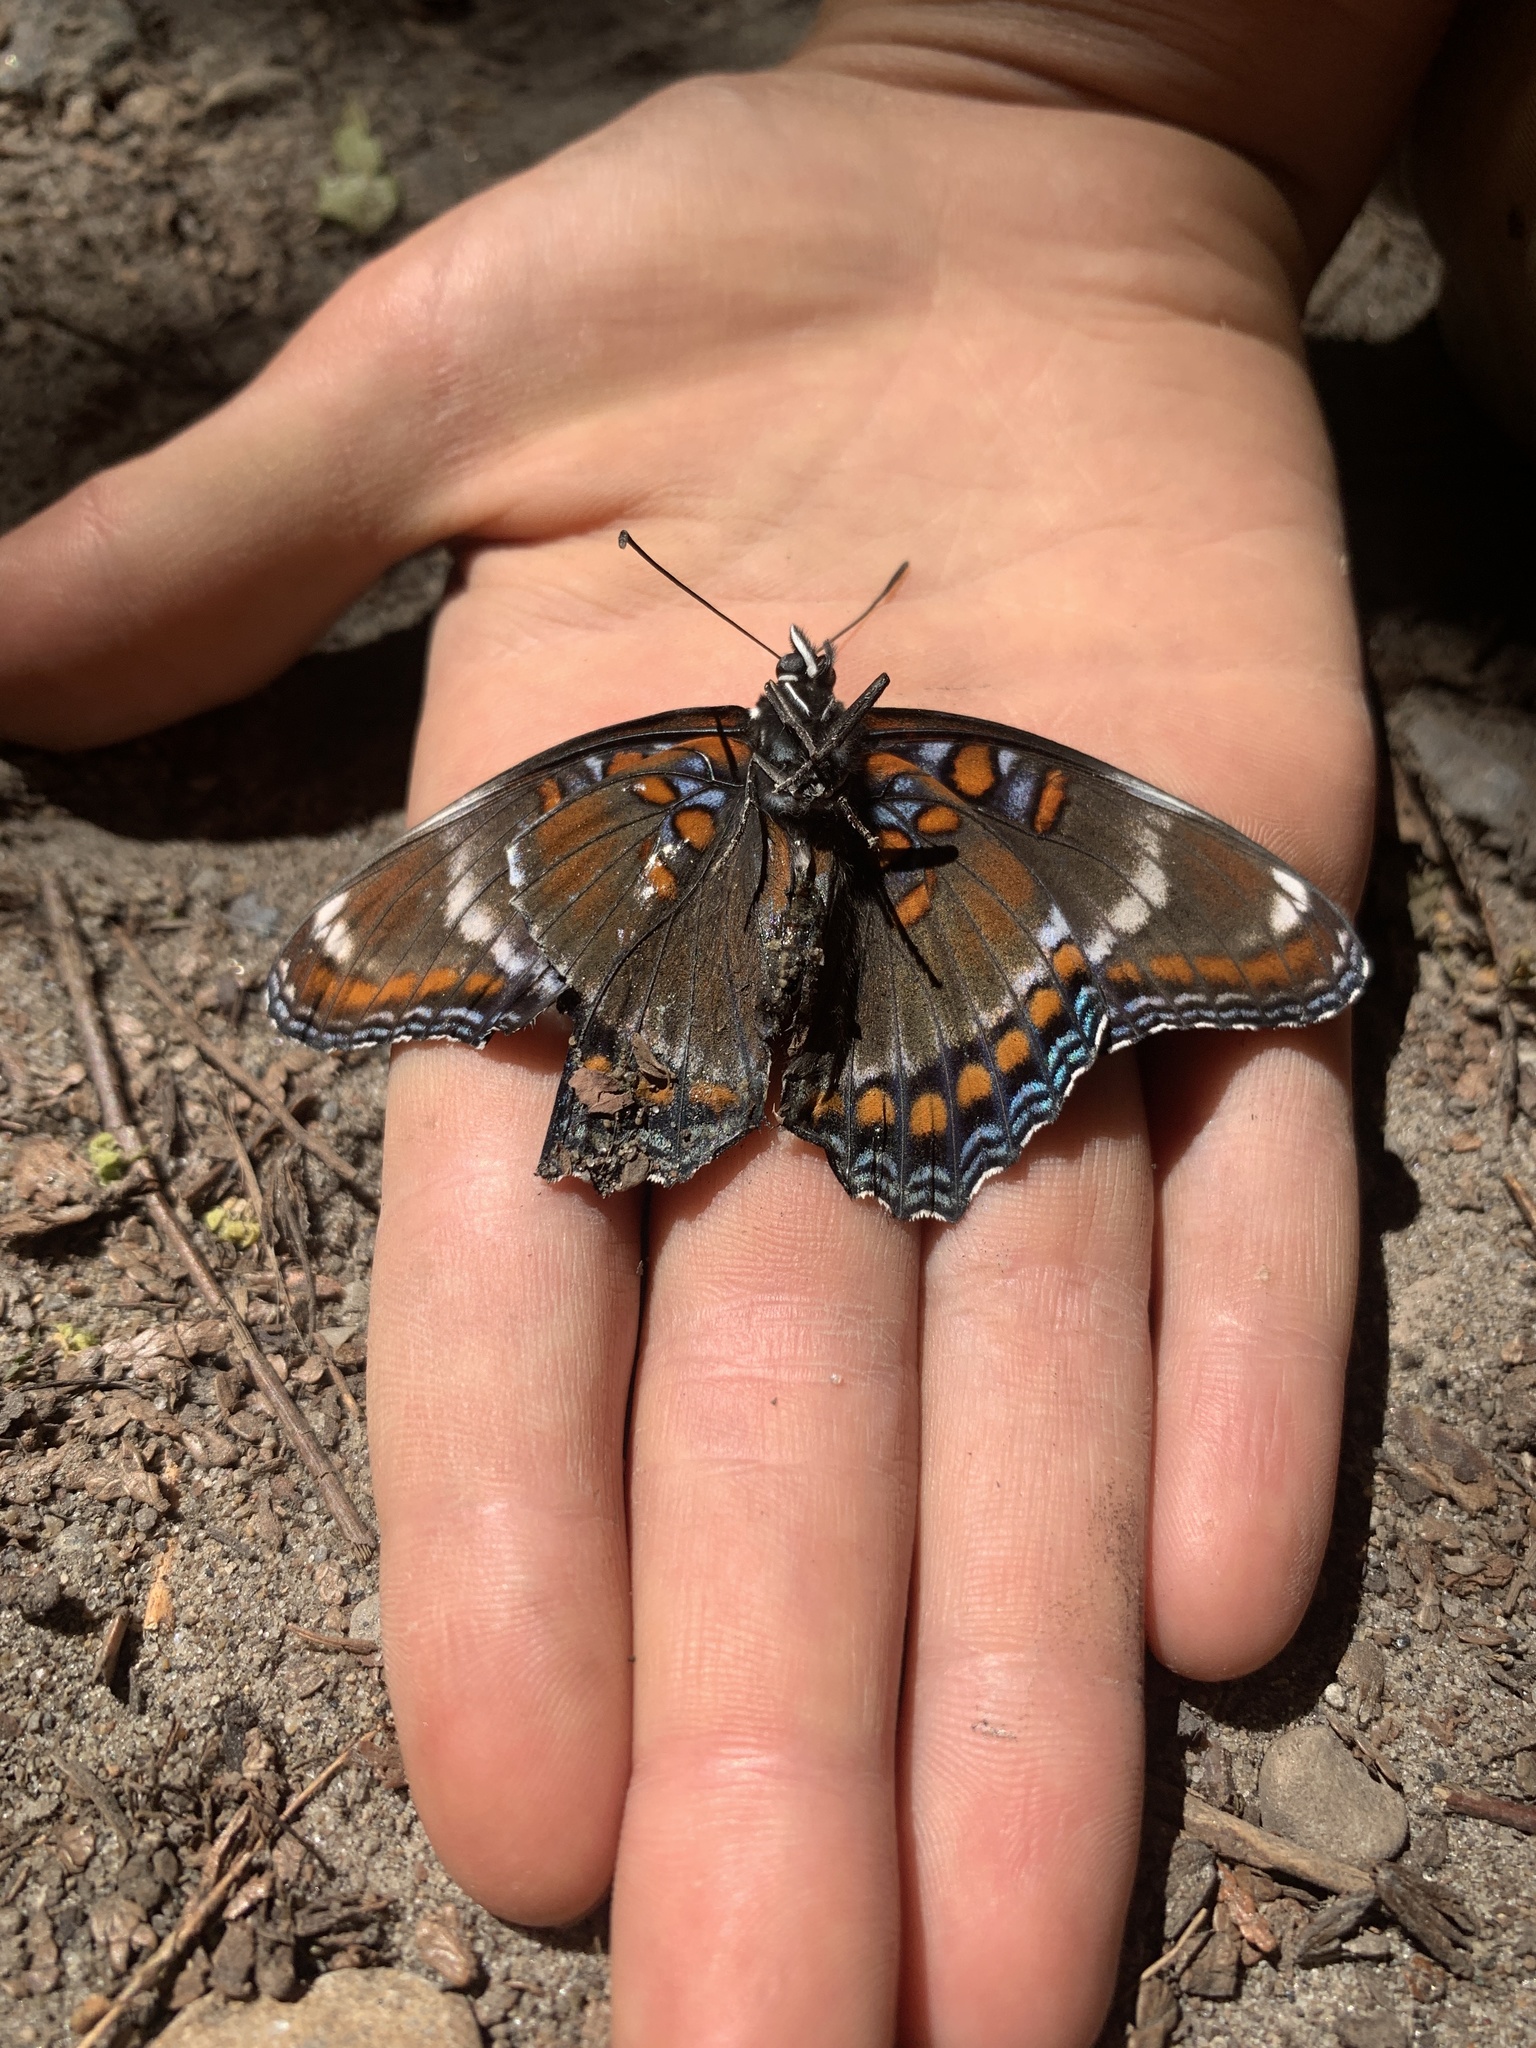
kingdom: Animalia
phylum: Arthropoda
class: Insecta
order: Lepidoptera
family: Nymphalidae
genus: Limenitis
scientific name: Limenitis
